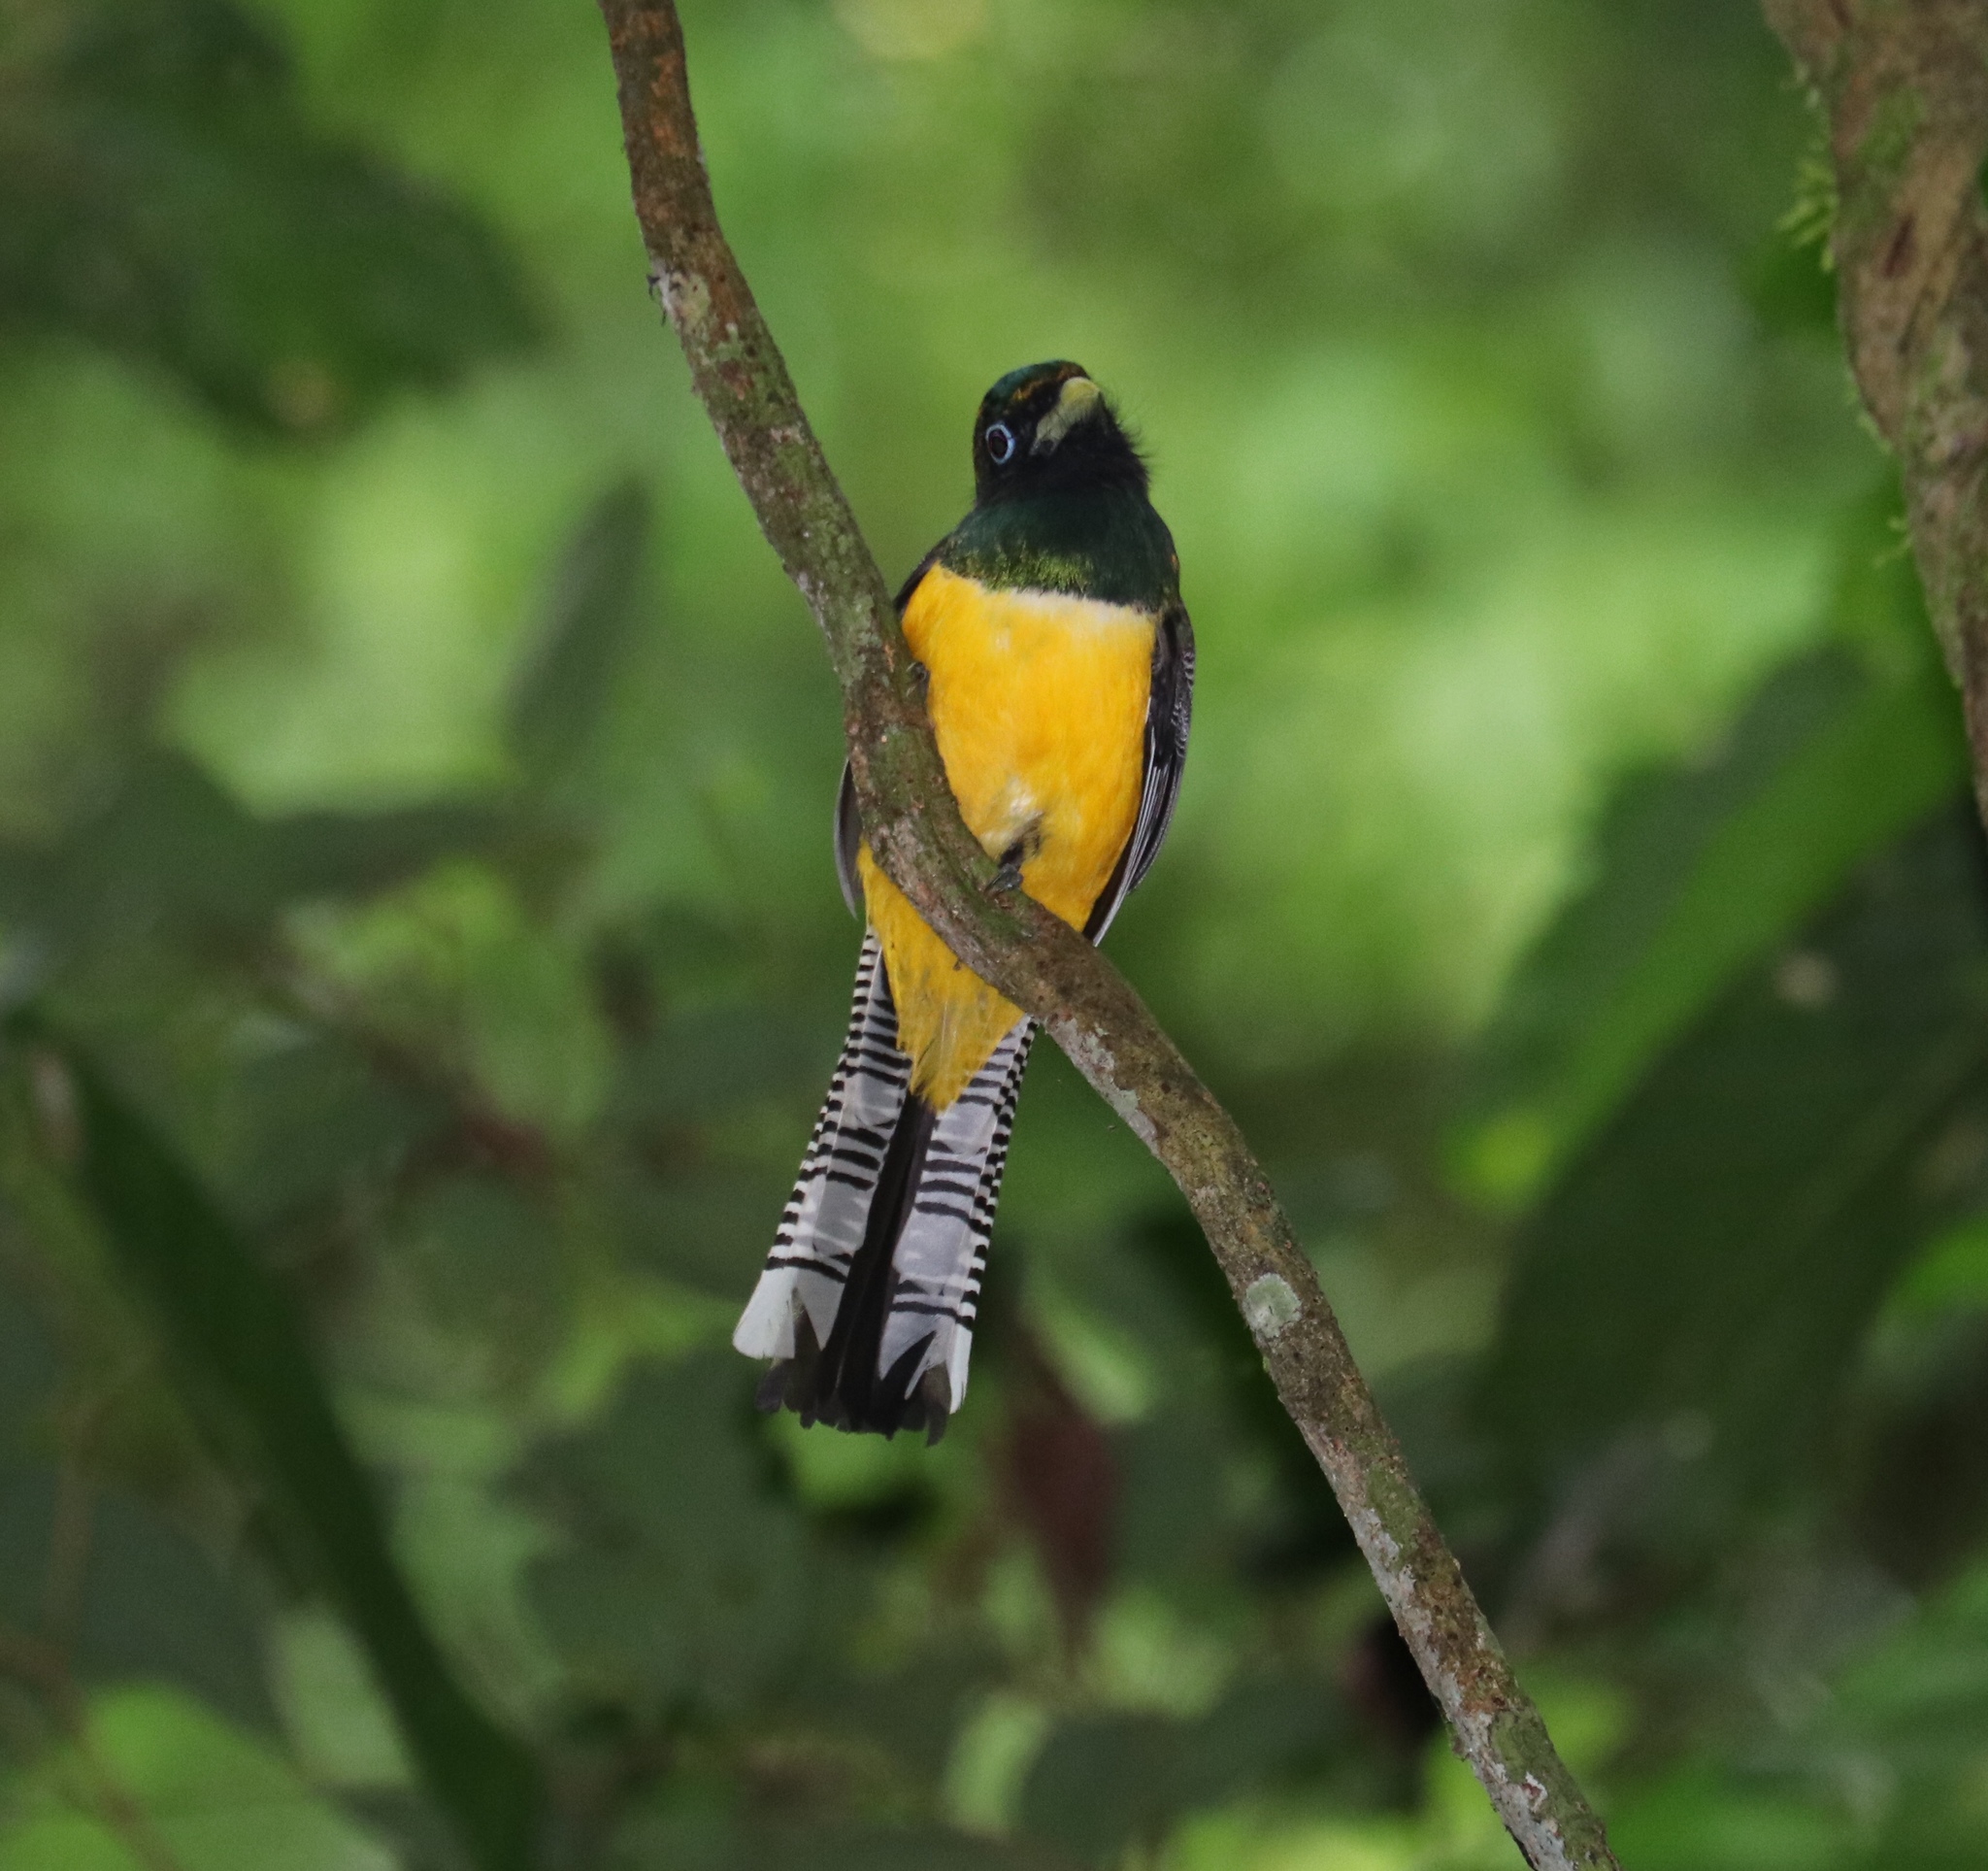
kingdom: Animalia
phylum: Chordata
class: Aves
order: Trogoniformes
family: Trogonidae
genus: Trogon
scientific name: Trogon rufus
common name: Black-throated trogon
